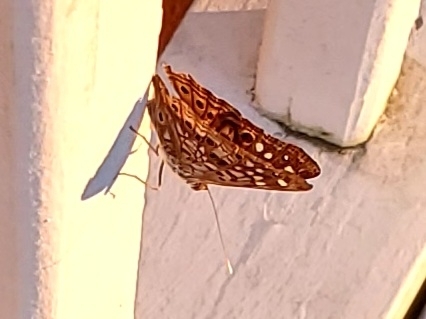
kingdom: Animalia
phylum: Arthropoda
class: Insecta
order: Lepidoptera
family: Nymphalidae
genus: Asterocampa
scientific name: Asterocampa celtis
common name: Hackberry emperor
